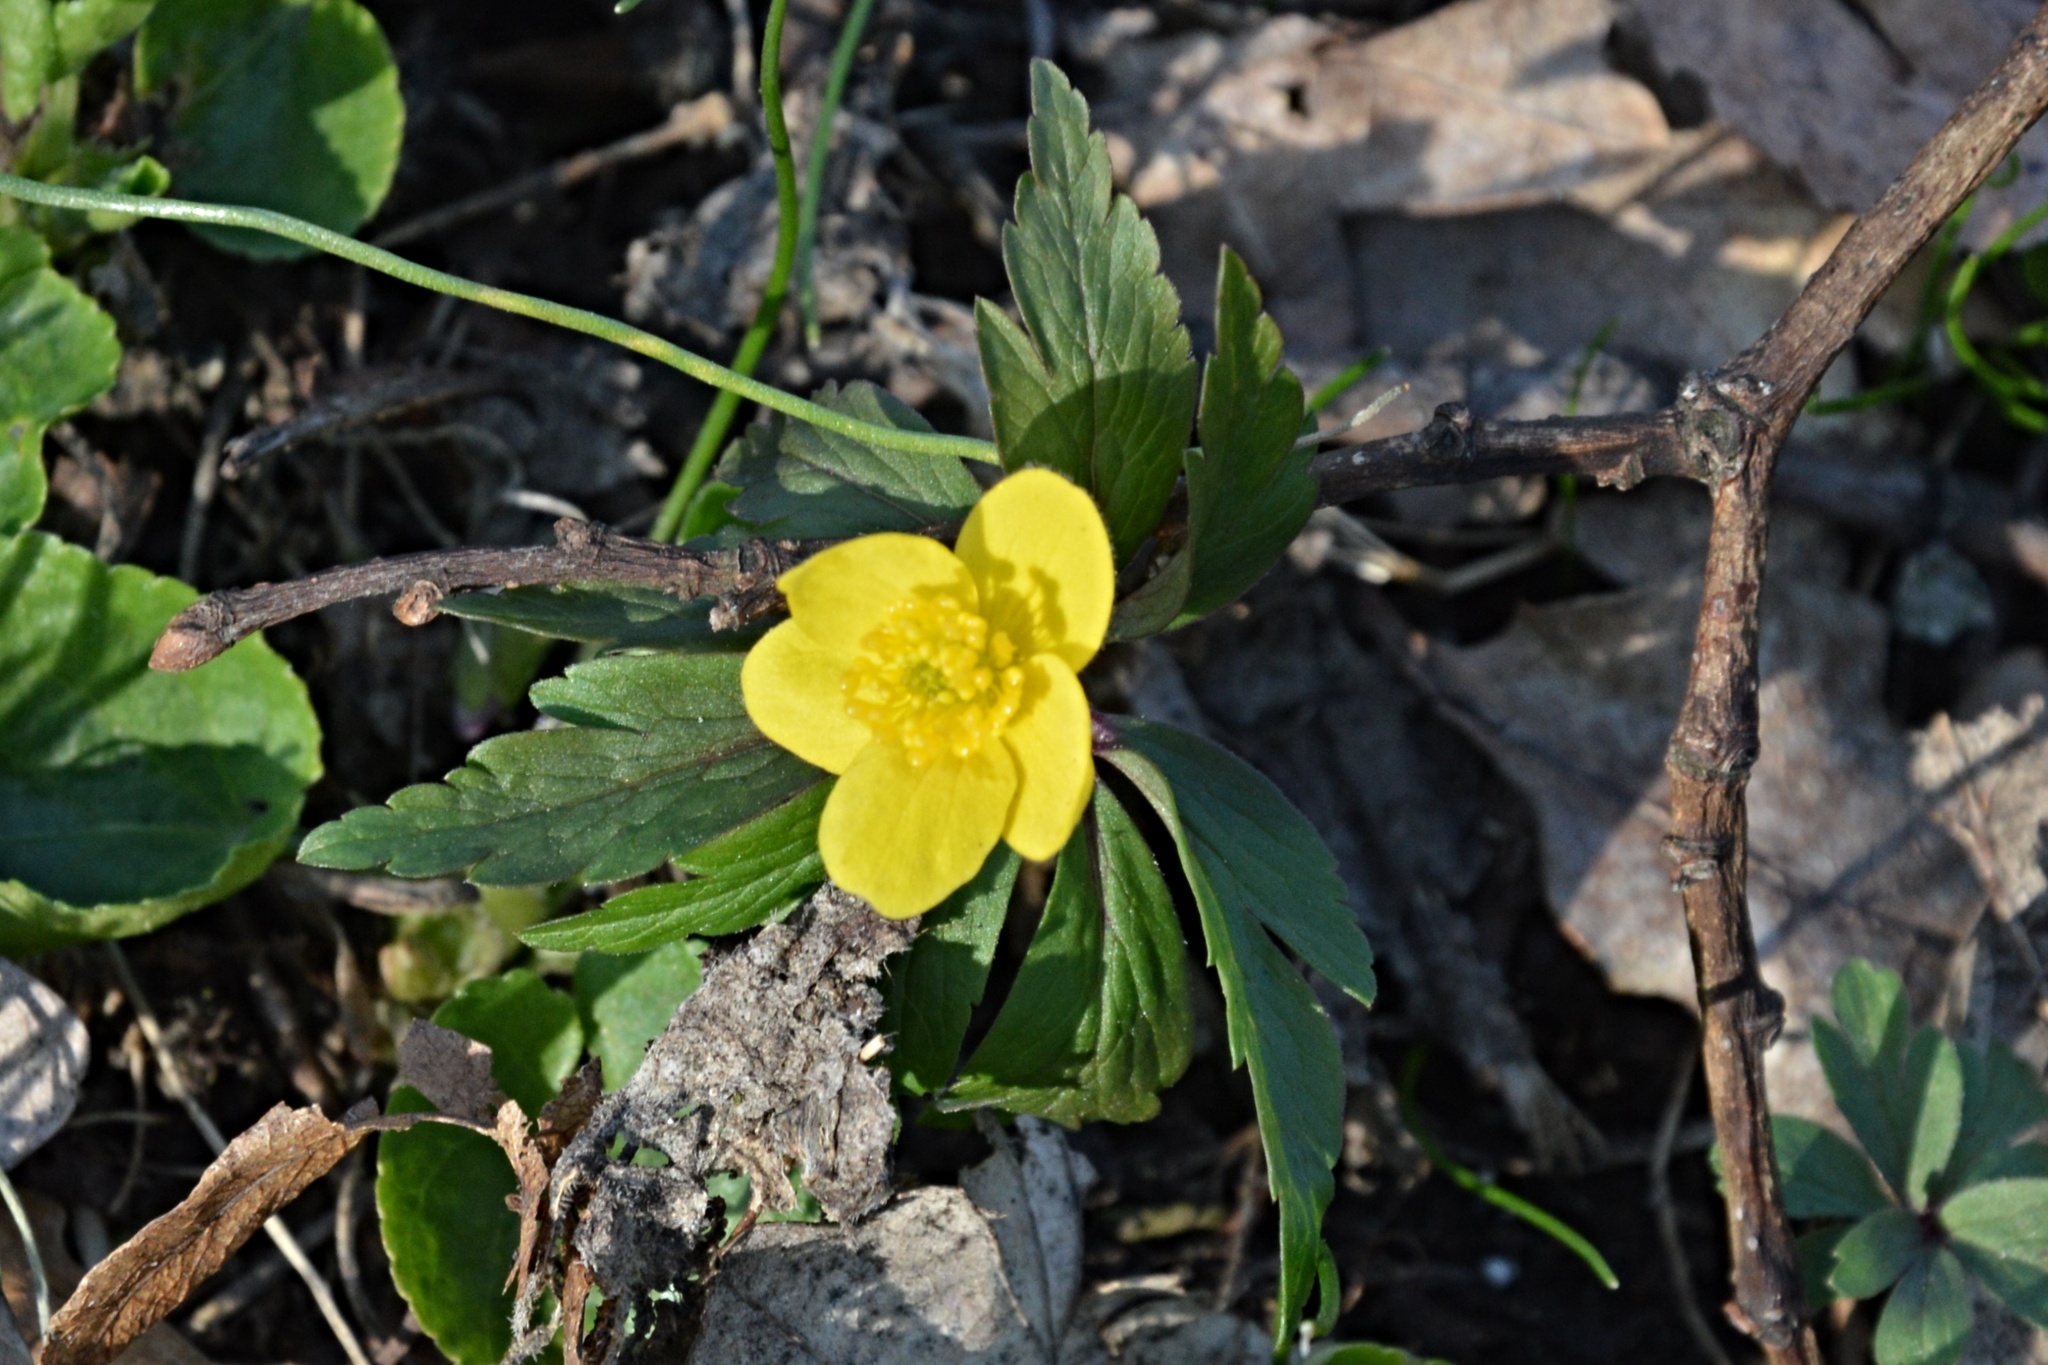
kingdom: Plantae
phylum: Tracheophyta
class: Magnoliopsida
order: Ranunculales
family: Ranunculaceae
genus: Anemone
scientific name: Anemone ranunculoides
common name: Yellow anemone
